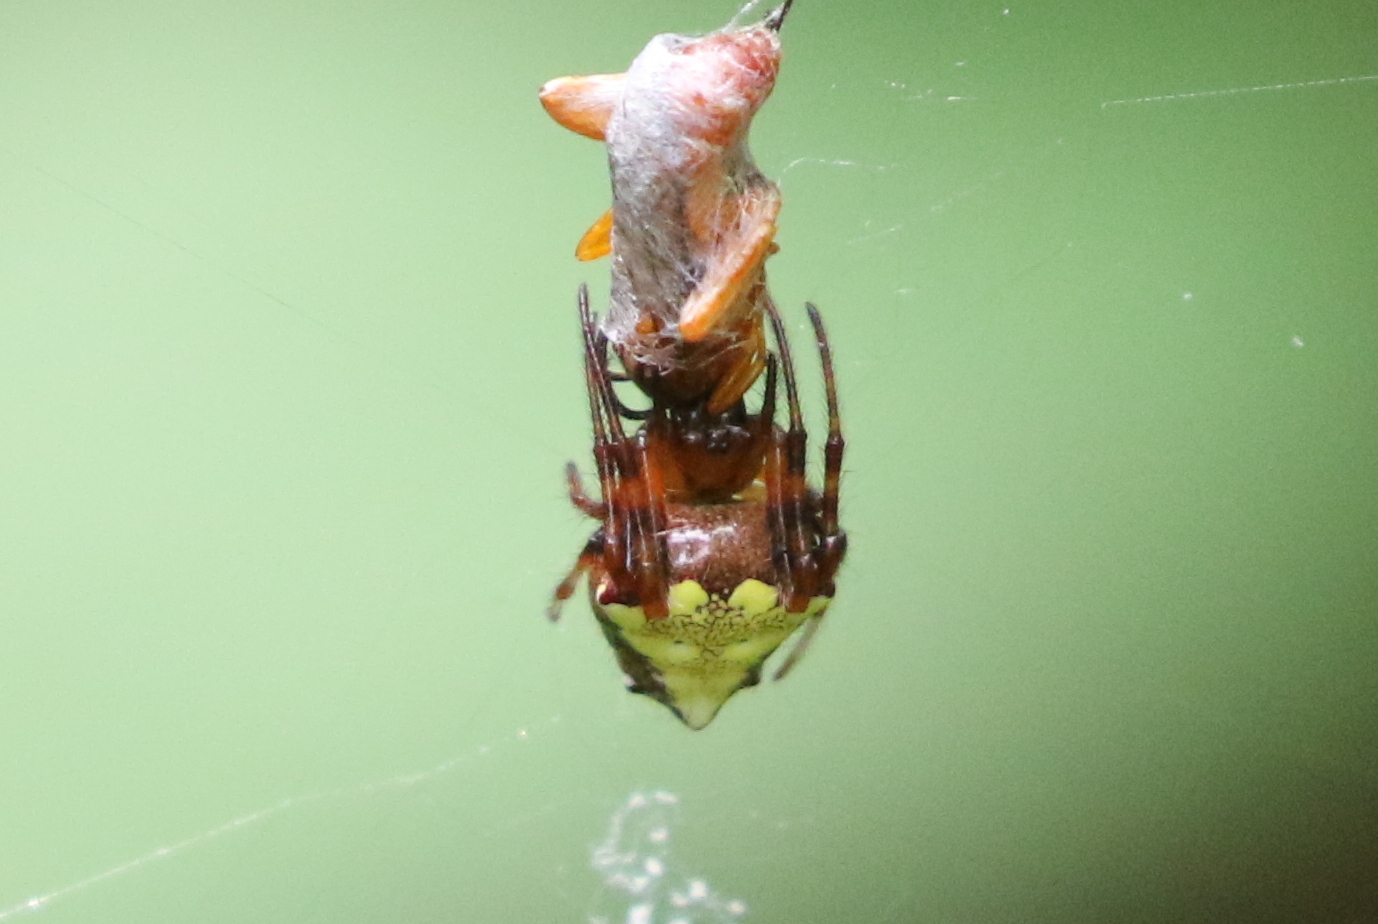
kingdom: Animalia
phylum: Arthropoda
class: Arachnida
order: Araneae
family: Araneidae
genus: Verrucosa
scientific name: Verrucosa arenata
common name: Orb weavers
